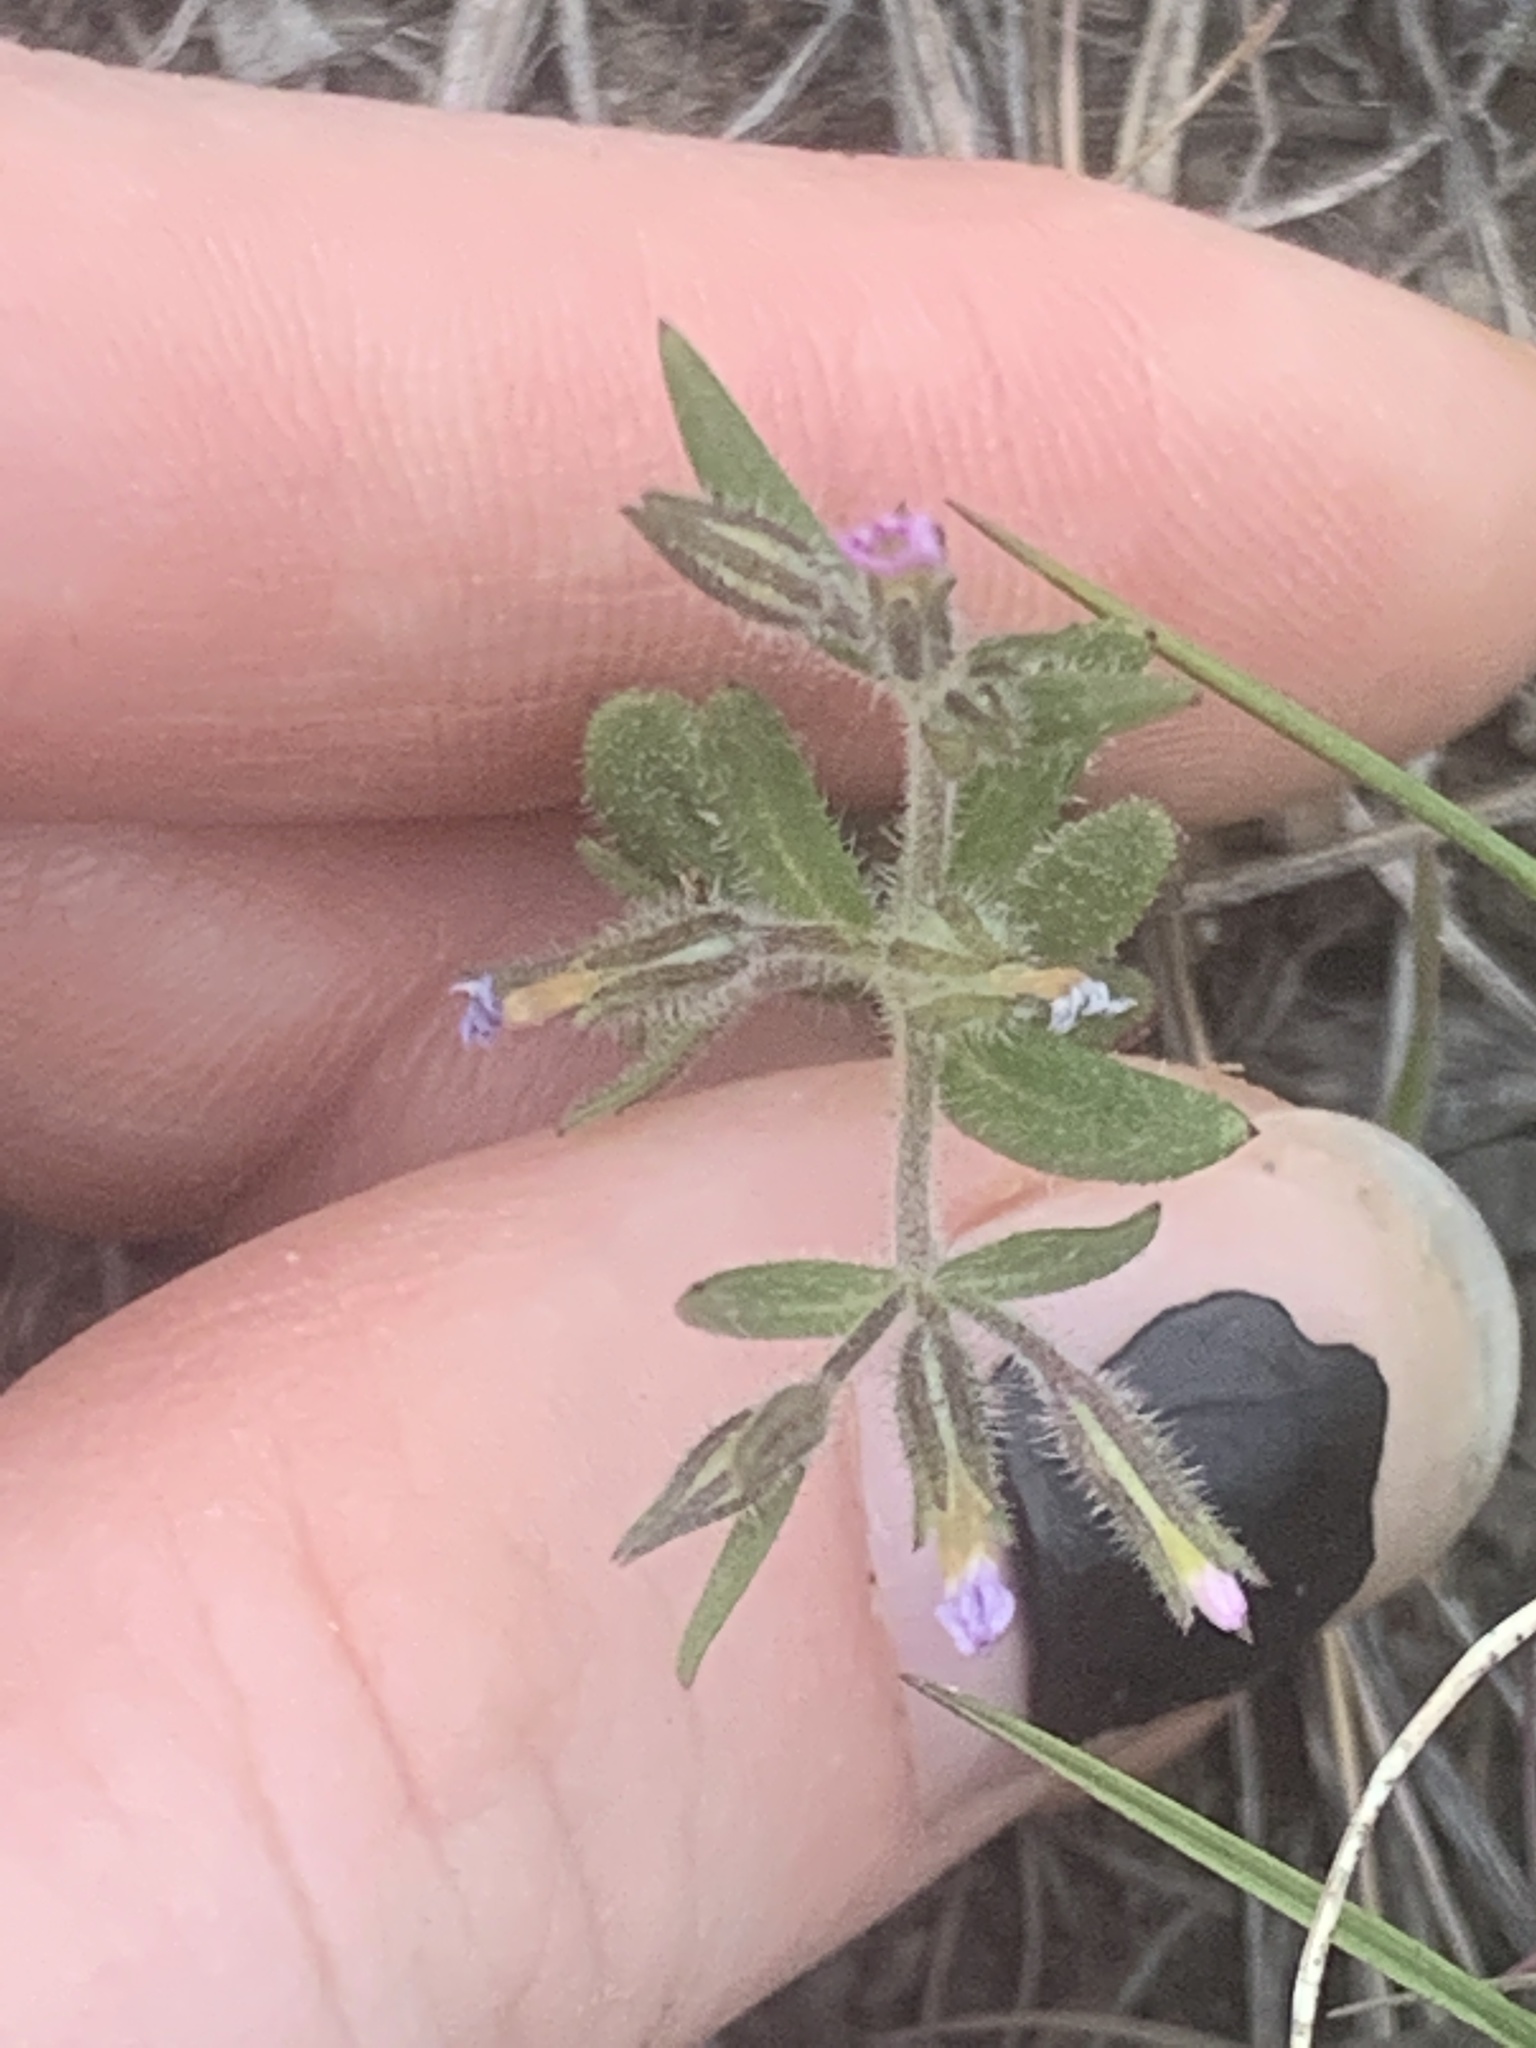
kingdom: Plantae
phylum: Tracheophyta
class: Magnoliopsida
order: Ericales
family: Polemoniaceae
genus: Phlox
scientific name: Phlox gracilis
